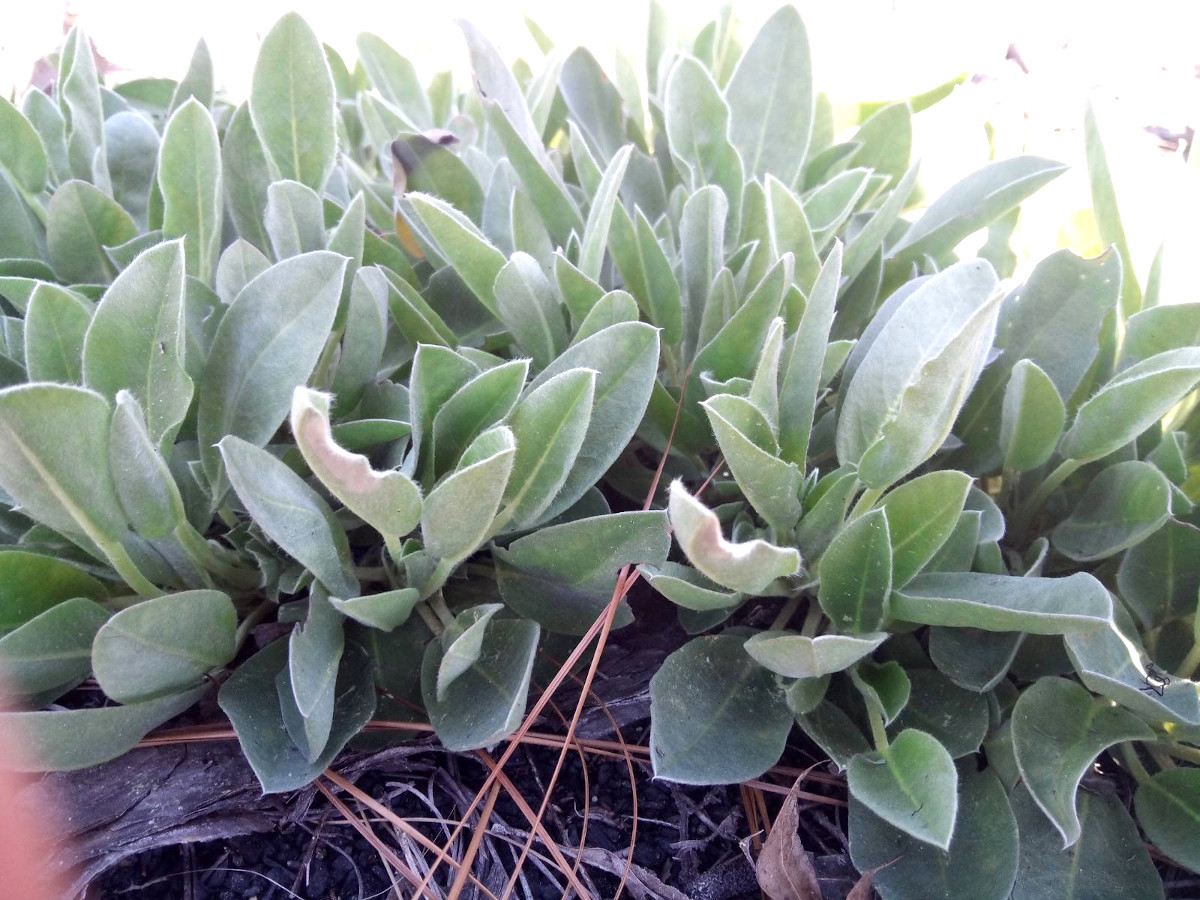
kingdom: Plantae
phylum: Tracheophyta
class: Magnoliopsida
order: Fabales
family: Fabaceae
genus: Lupinus
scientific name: Lupinus diffusus
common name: Oak ridge lupine
